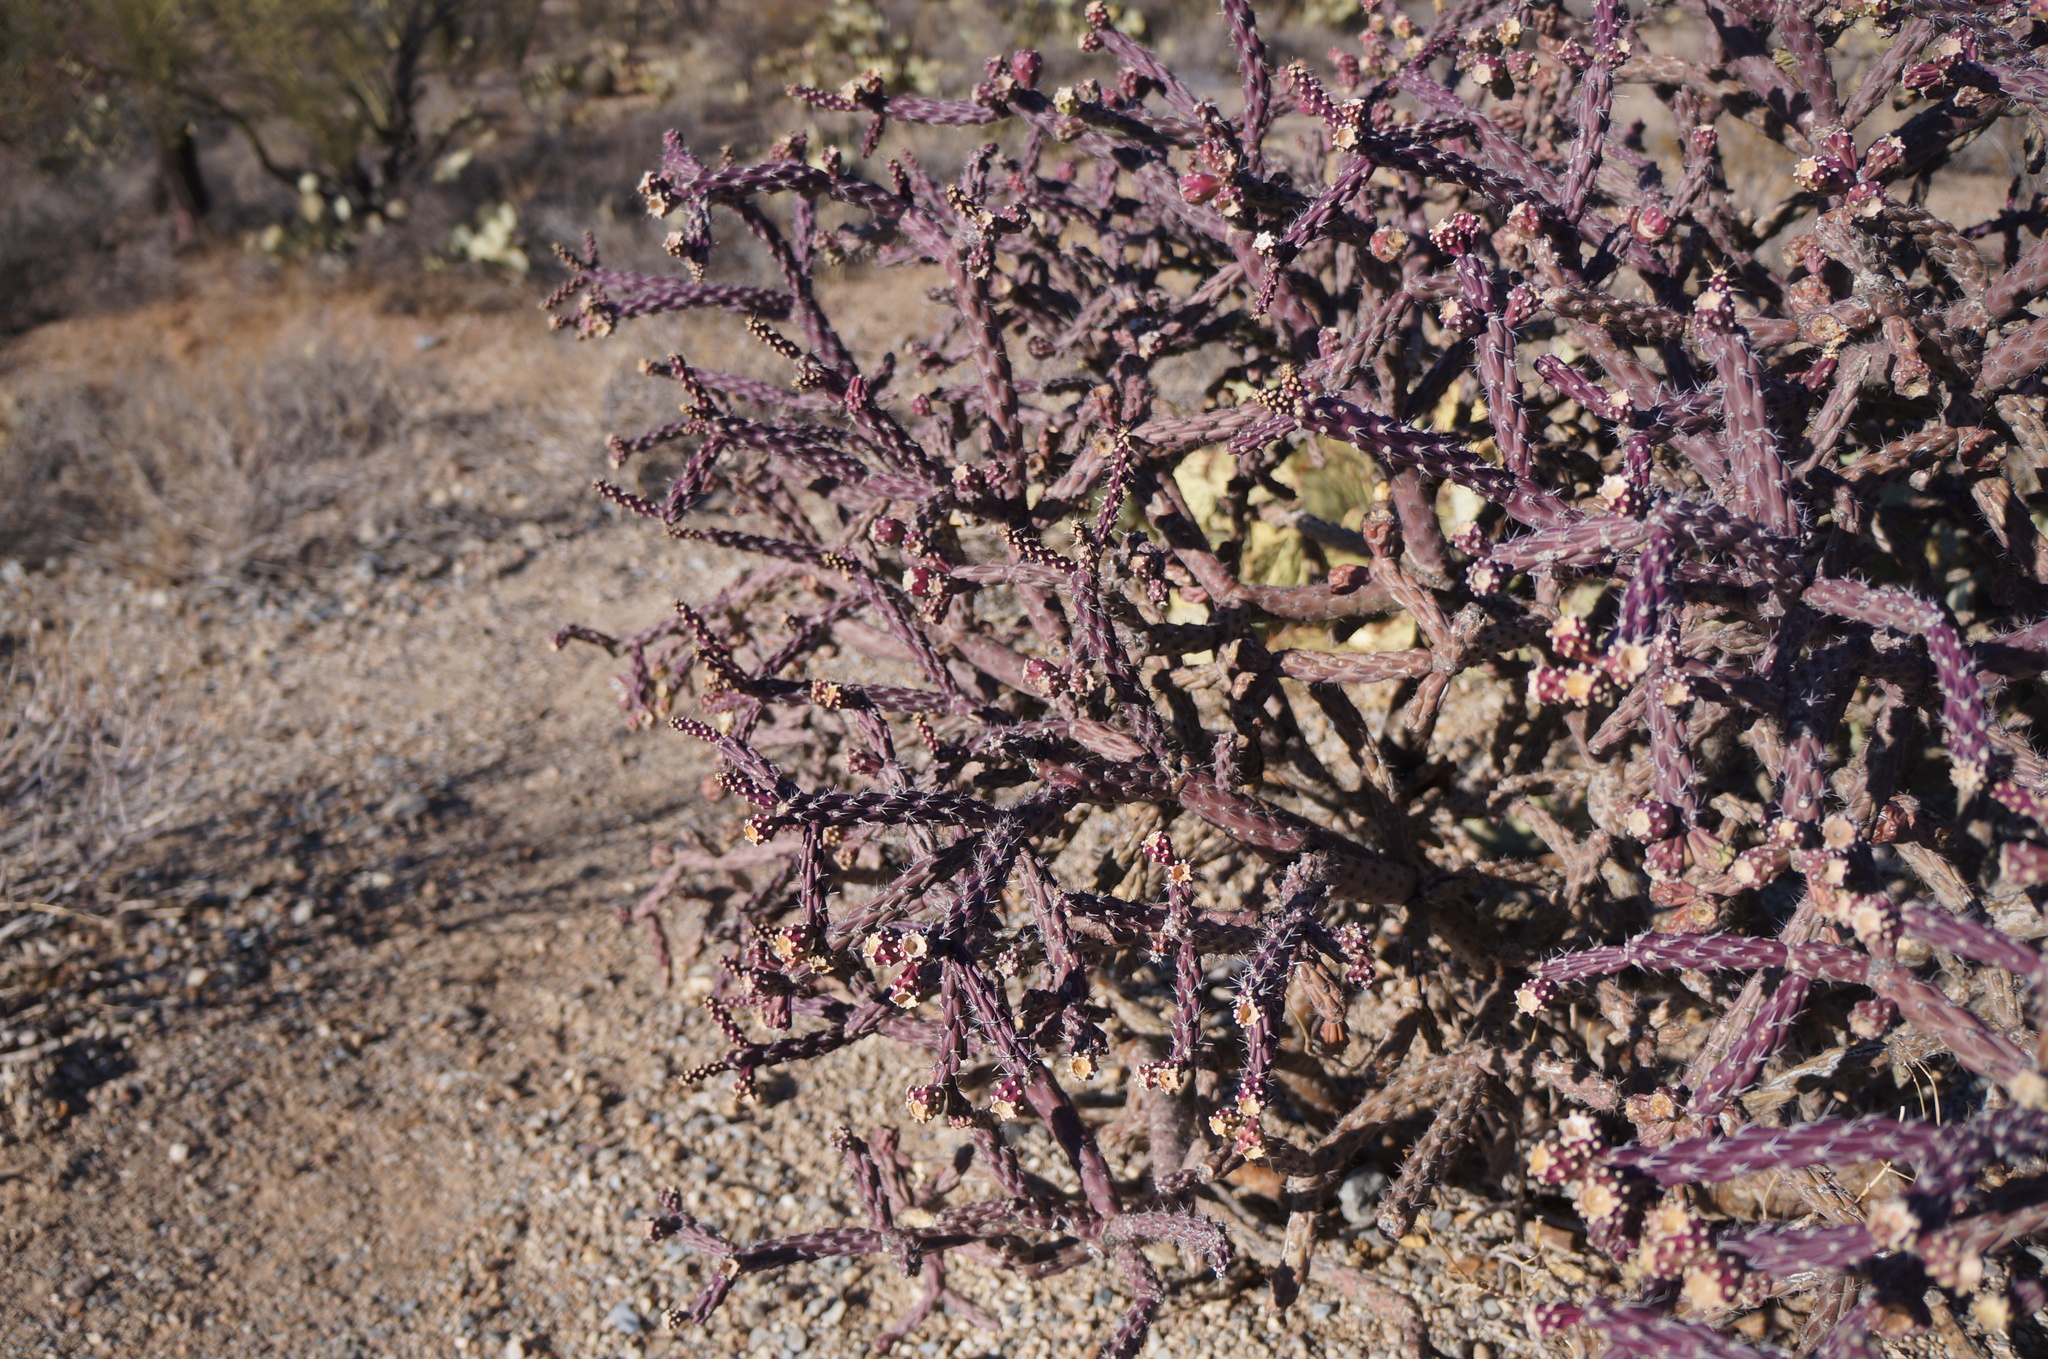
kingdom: Plantae
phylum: Tracheophyta
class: Magnoliopsida
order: Caryophyllales
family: Cactaceae
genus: Cylindropuntia
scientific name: Cylindropuntia thurberi
